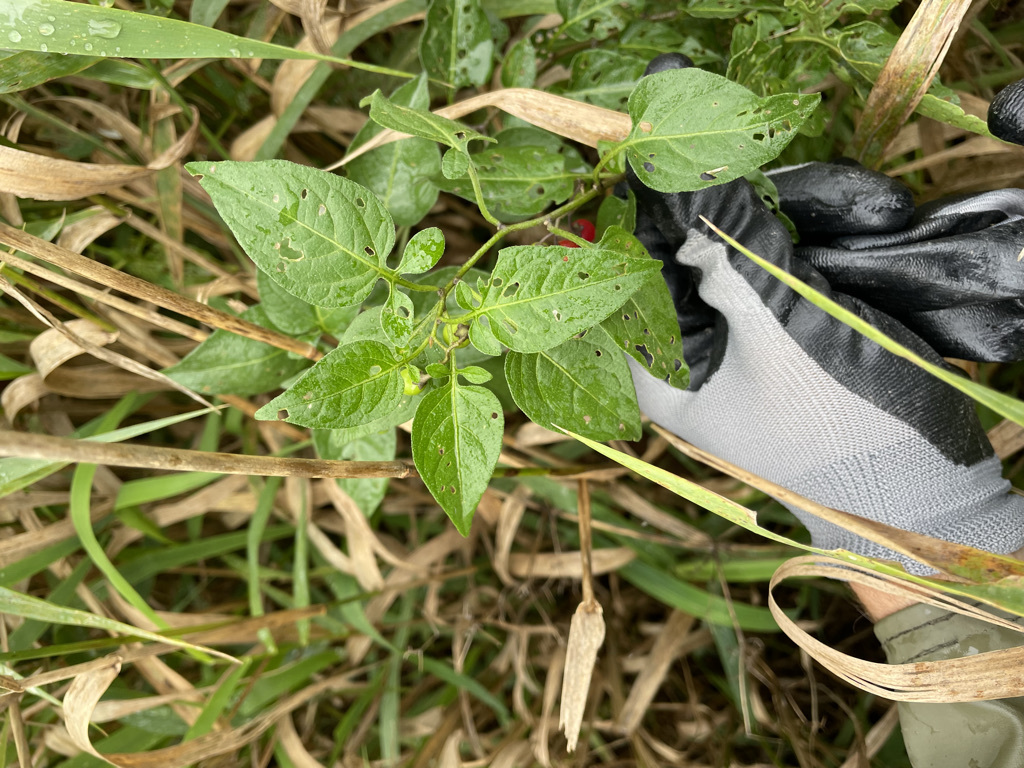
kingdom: Plantae
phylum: Tracheophyta
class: Magnoliopsida
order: Solanales
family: Solanaceae
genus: Solanum
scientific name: Solanum dulcamara
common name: Climbing nightshade
